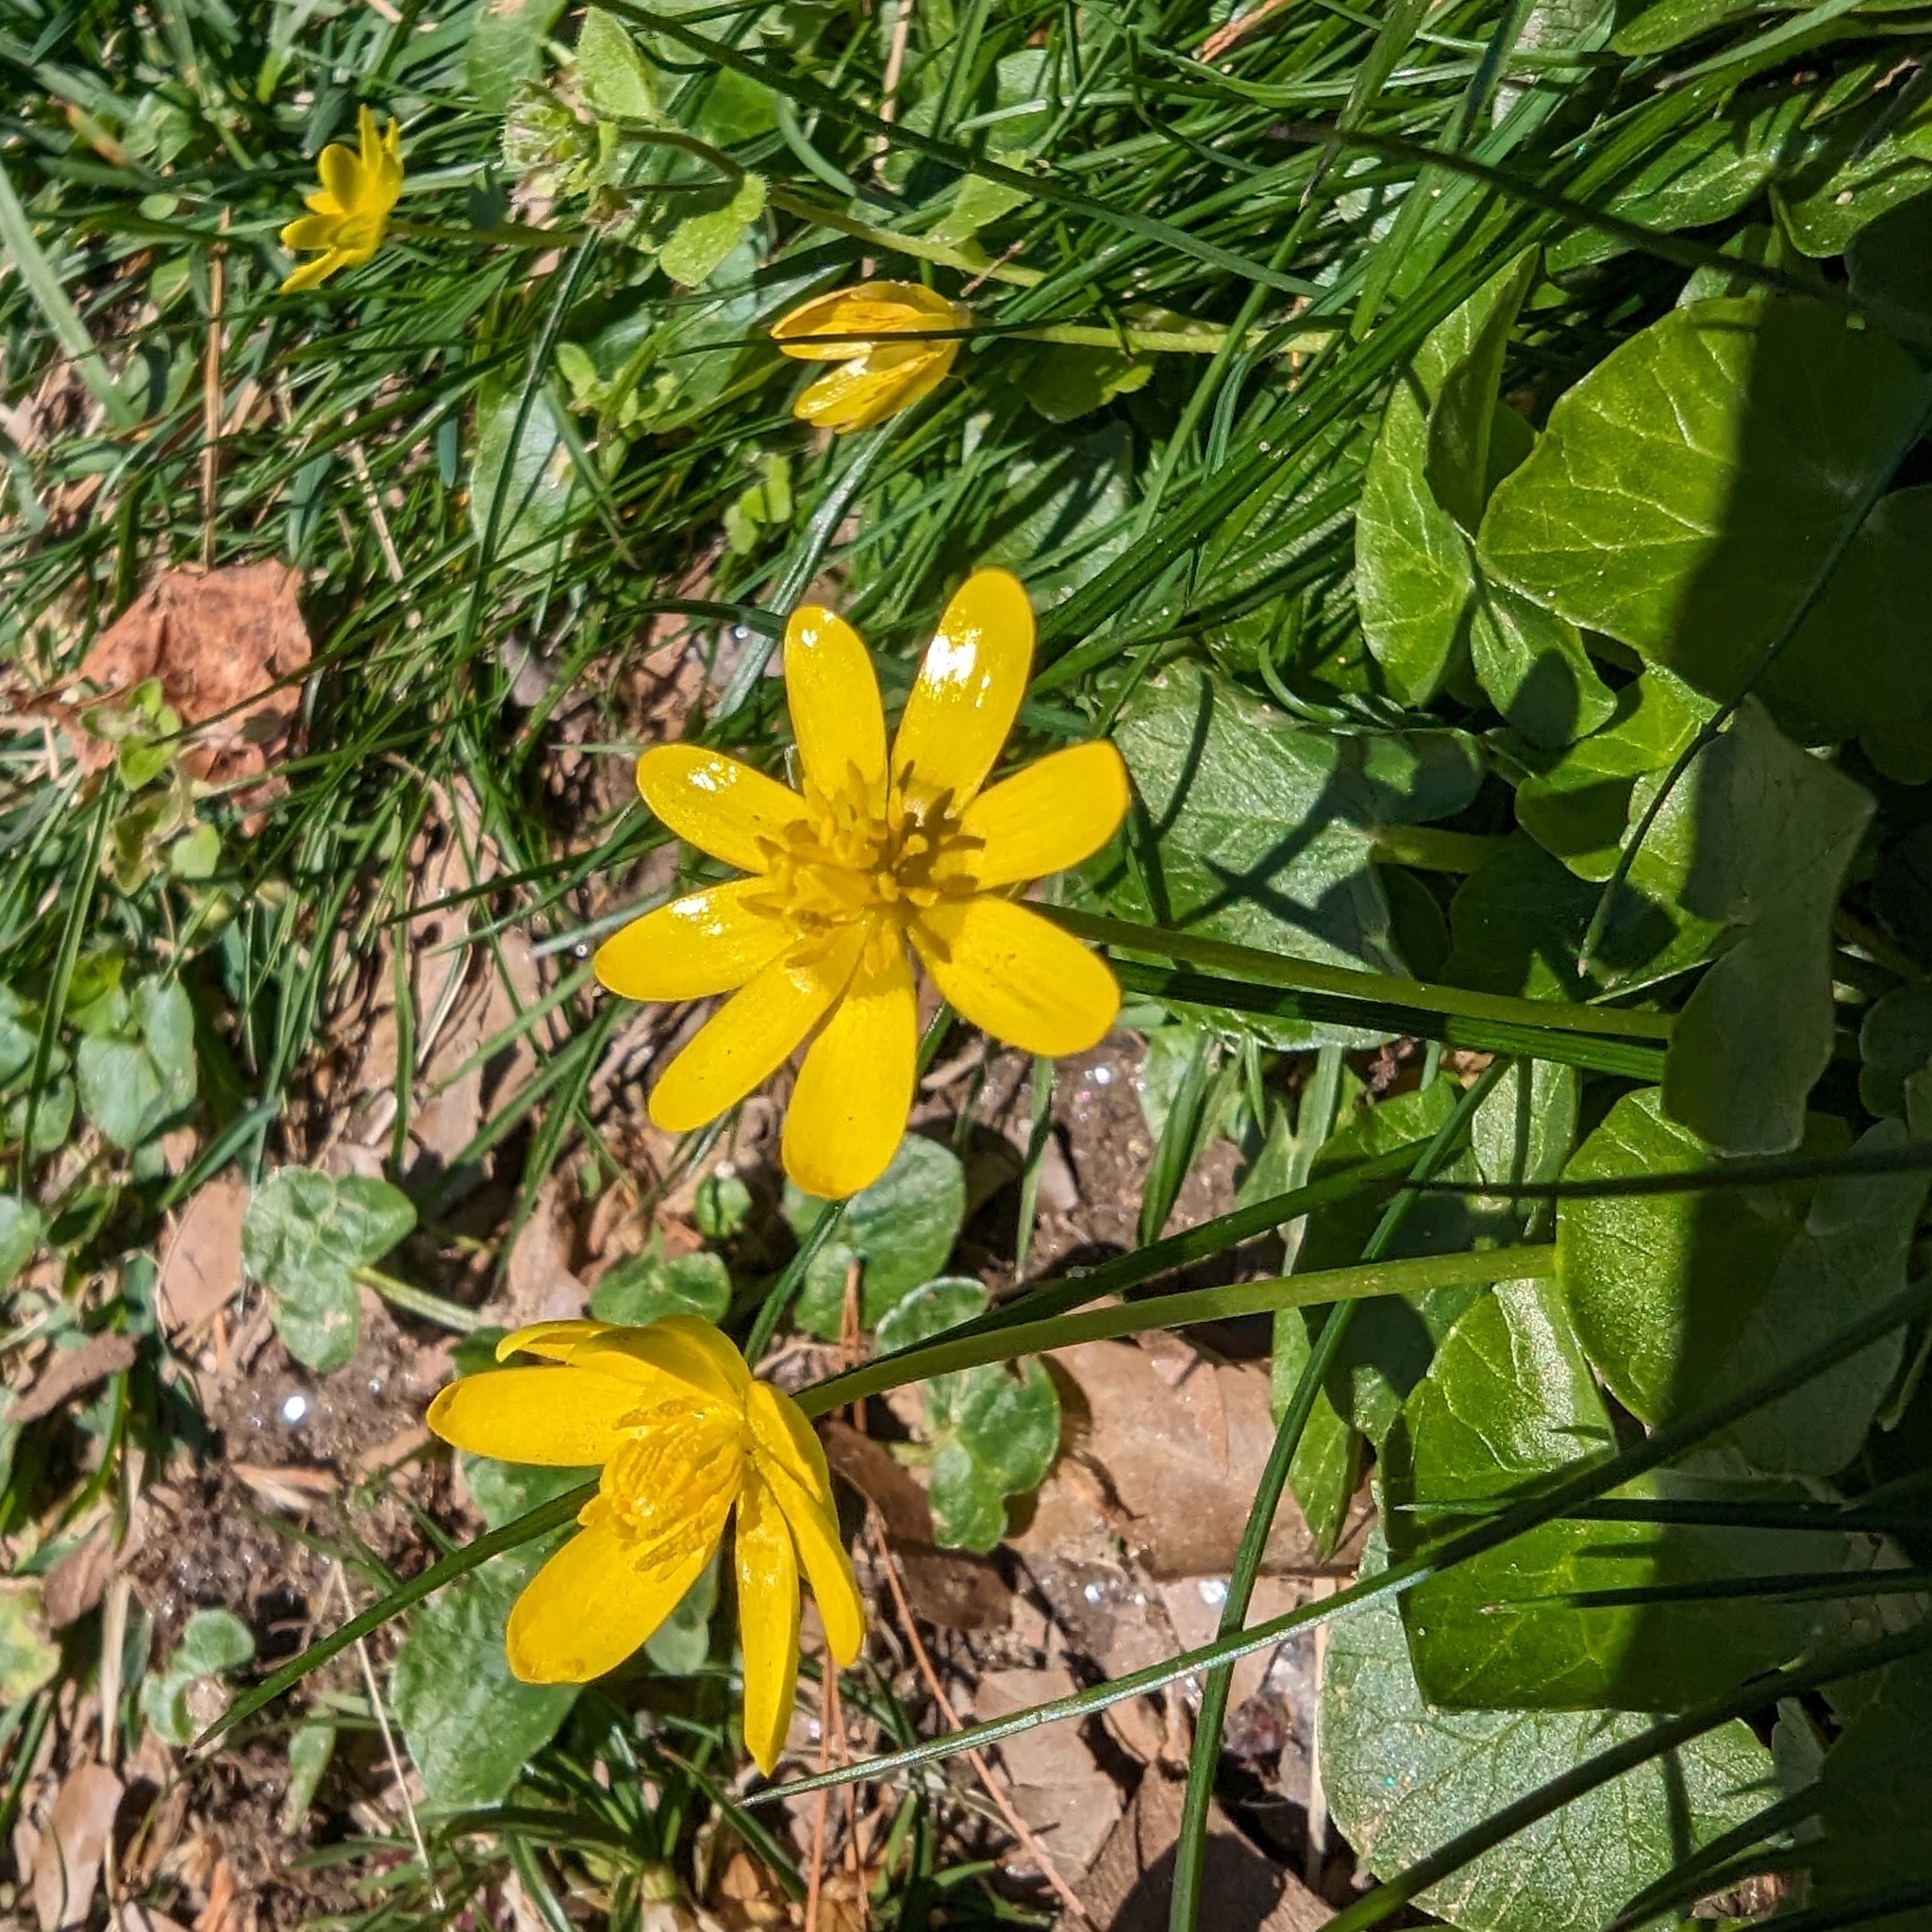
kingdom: Plantae
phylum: Tracheophyta
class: Magnoliopsida
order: Ranunculales
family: Ranunculaceae
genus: Ficaria
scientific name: Ficaria verna
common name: Lesser celandine
